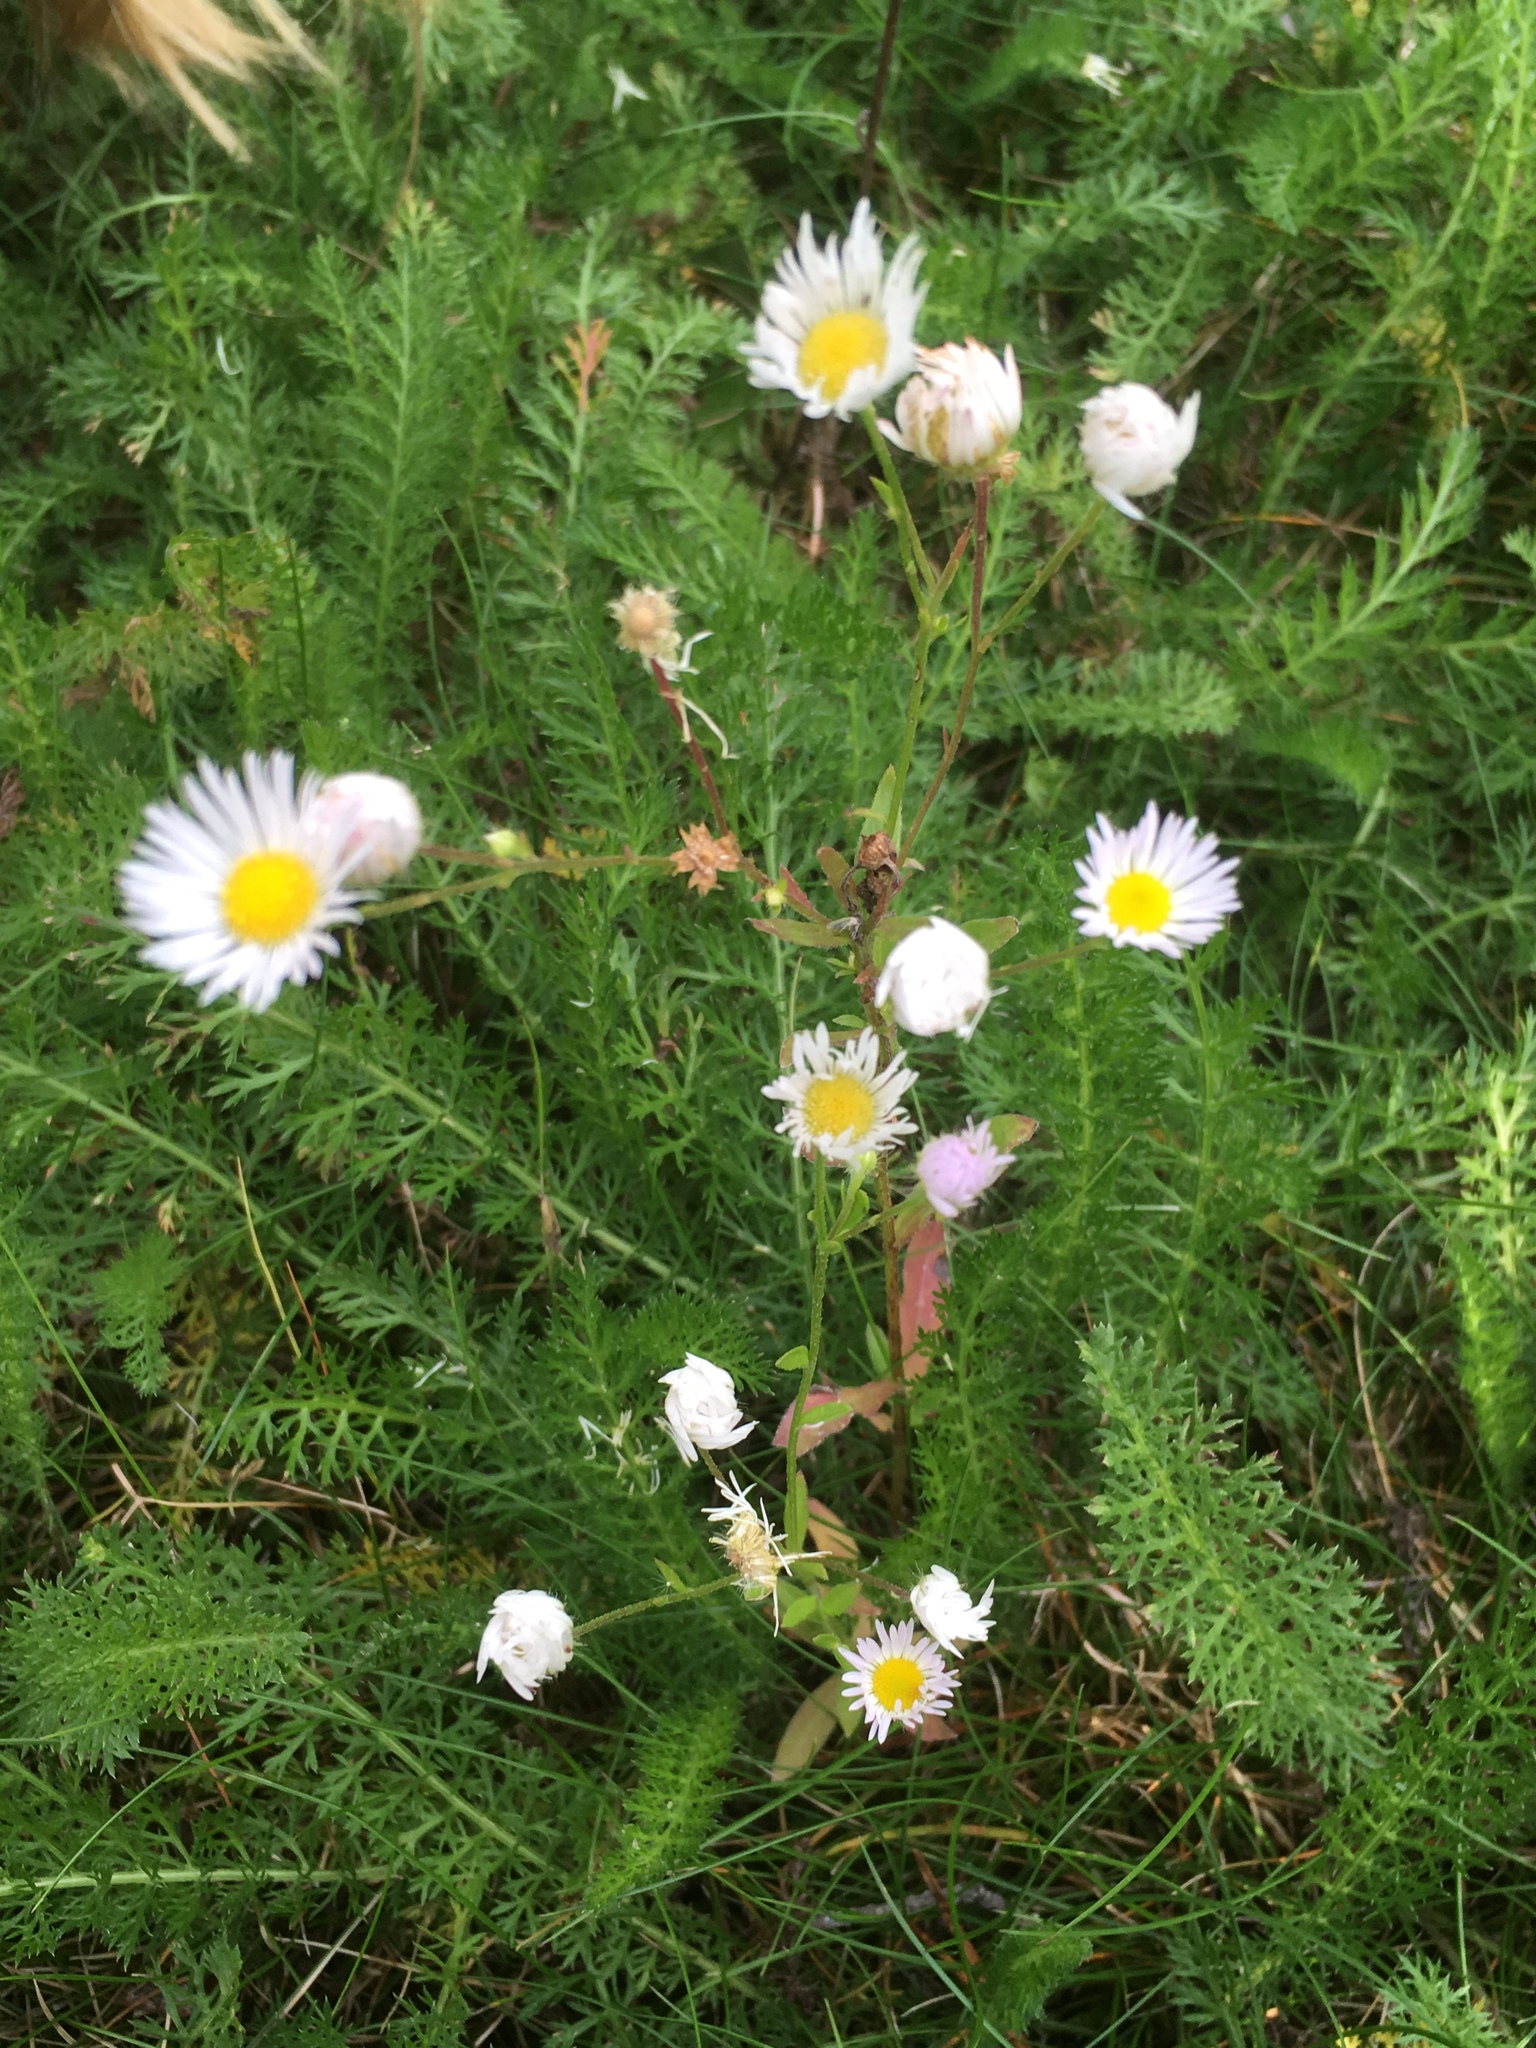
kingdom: Plantae
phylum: Tracheophyta
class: Magnoliopsida
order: Asterales
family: Asteraceae
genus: Erigeron
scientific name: Erigeron annuus
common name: Tall fleabane
